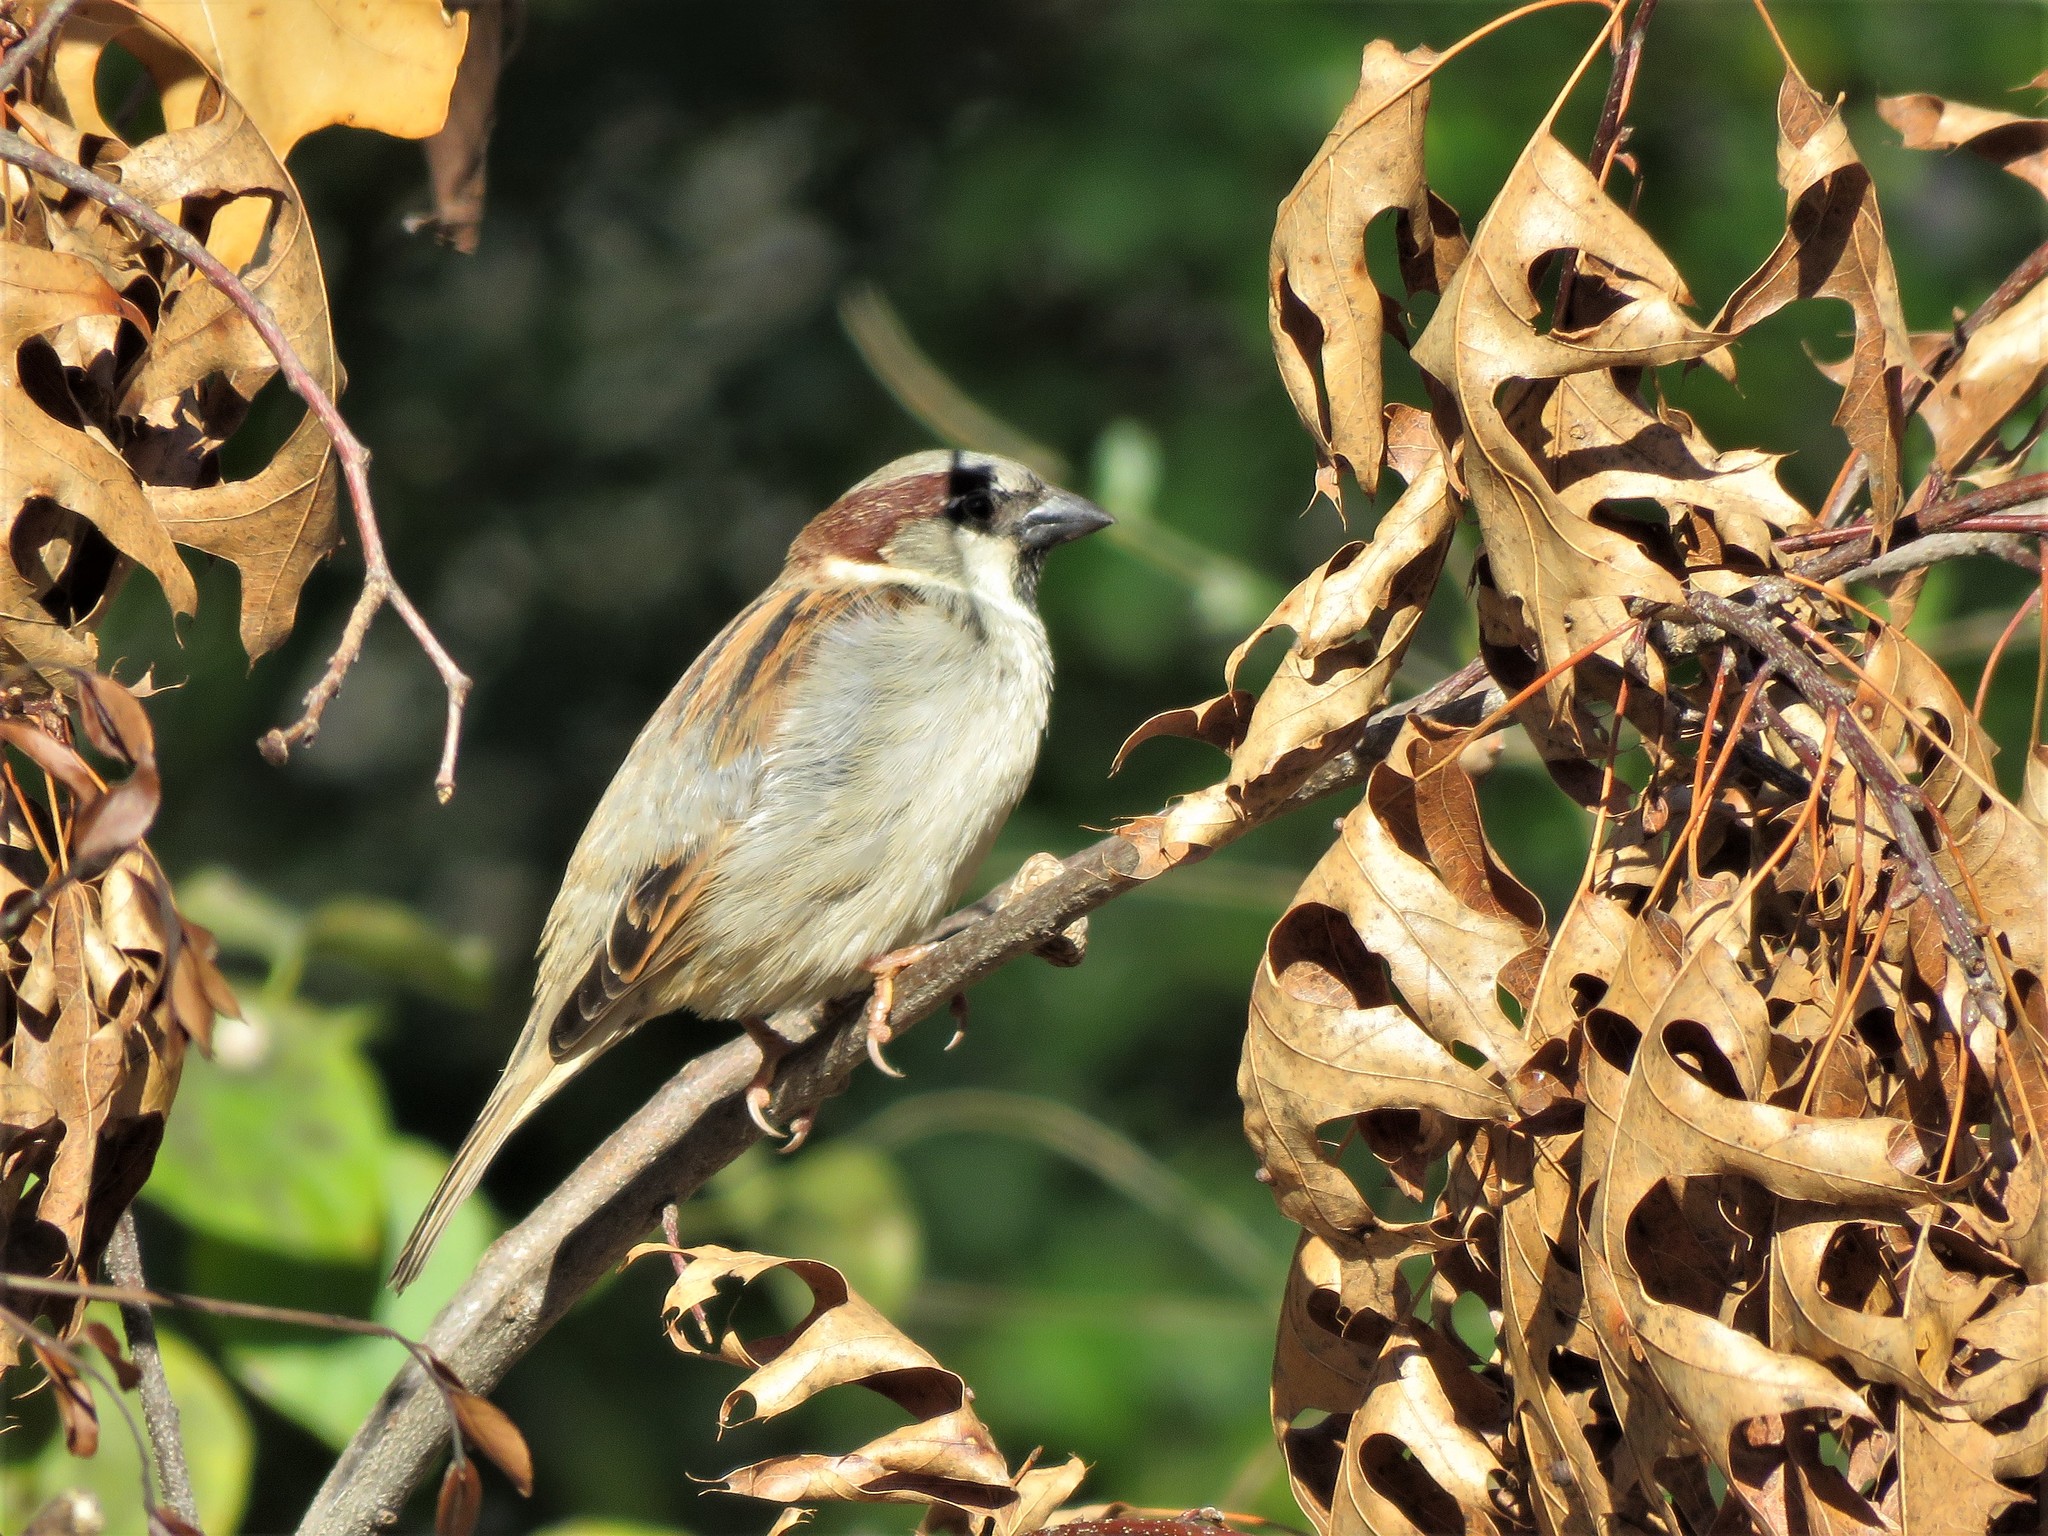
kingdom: Animalia
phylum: Chordata
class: Aves
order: Passeriformes
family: Passeridae
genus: Passer
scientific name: Passer domesticus
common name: House sparrow
